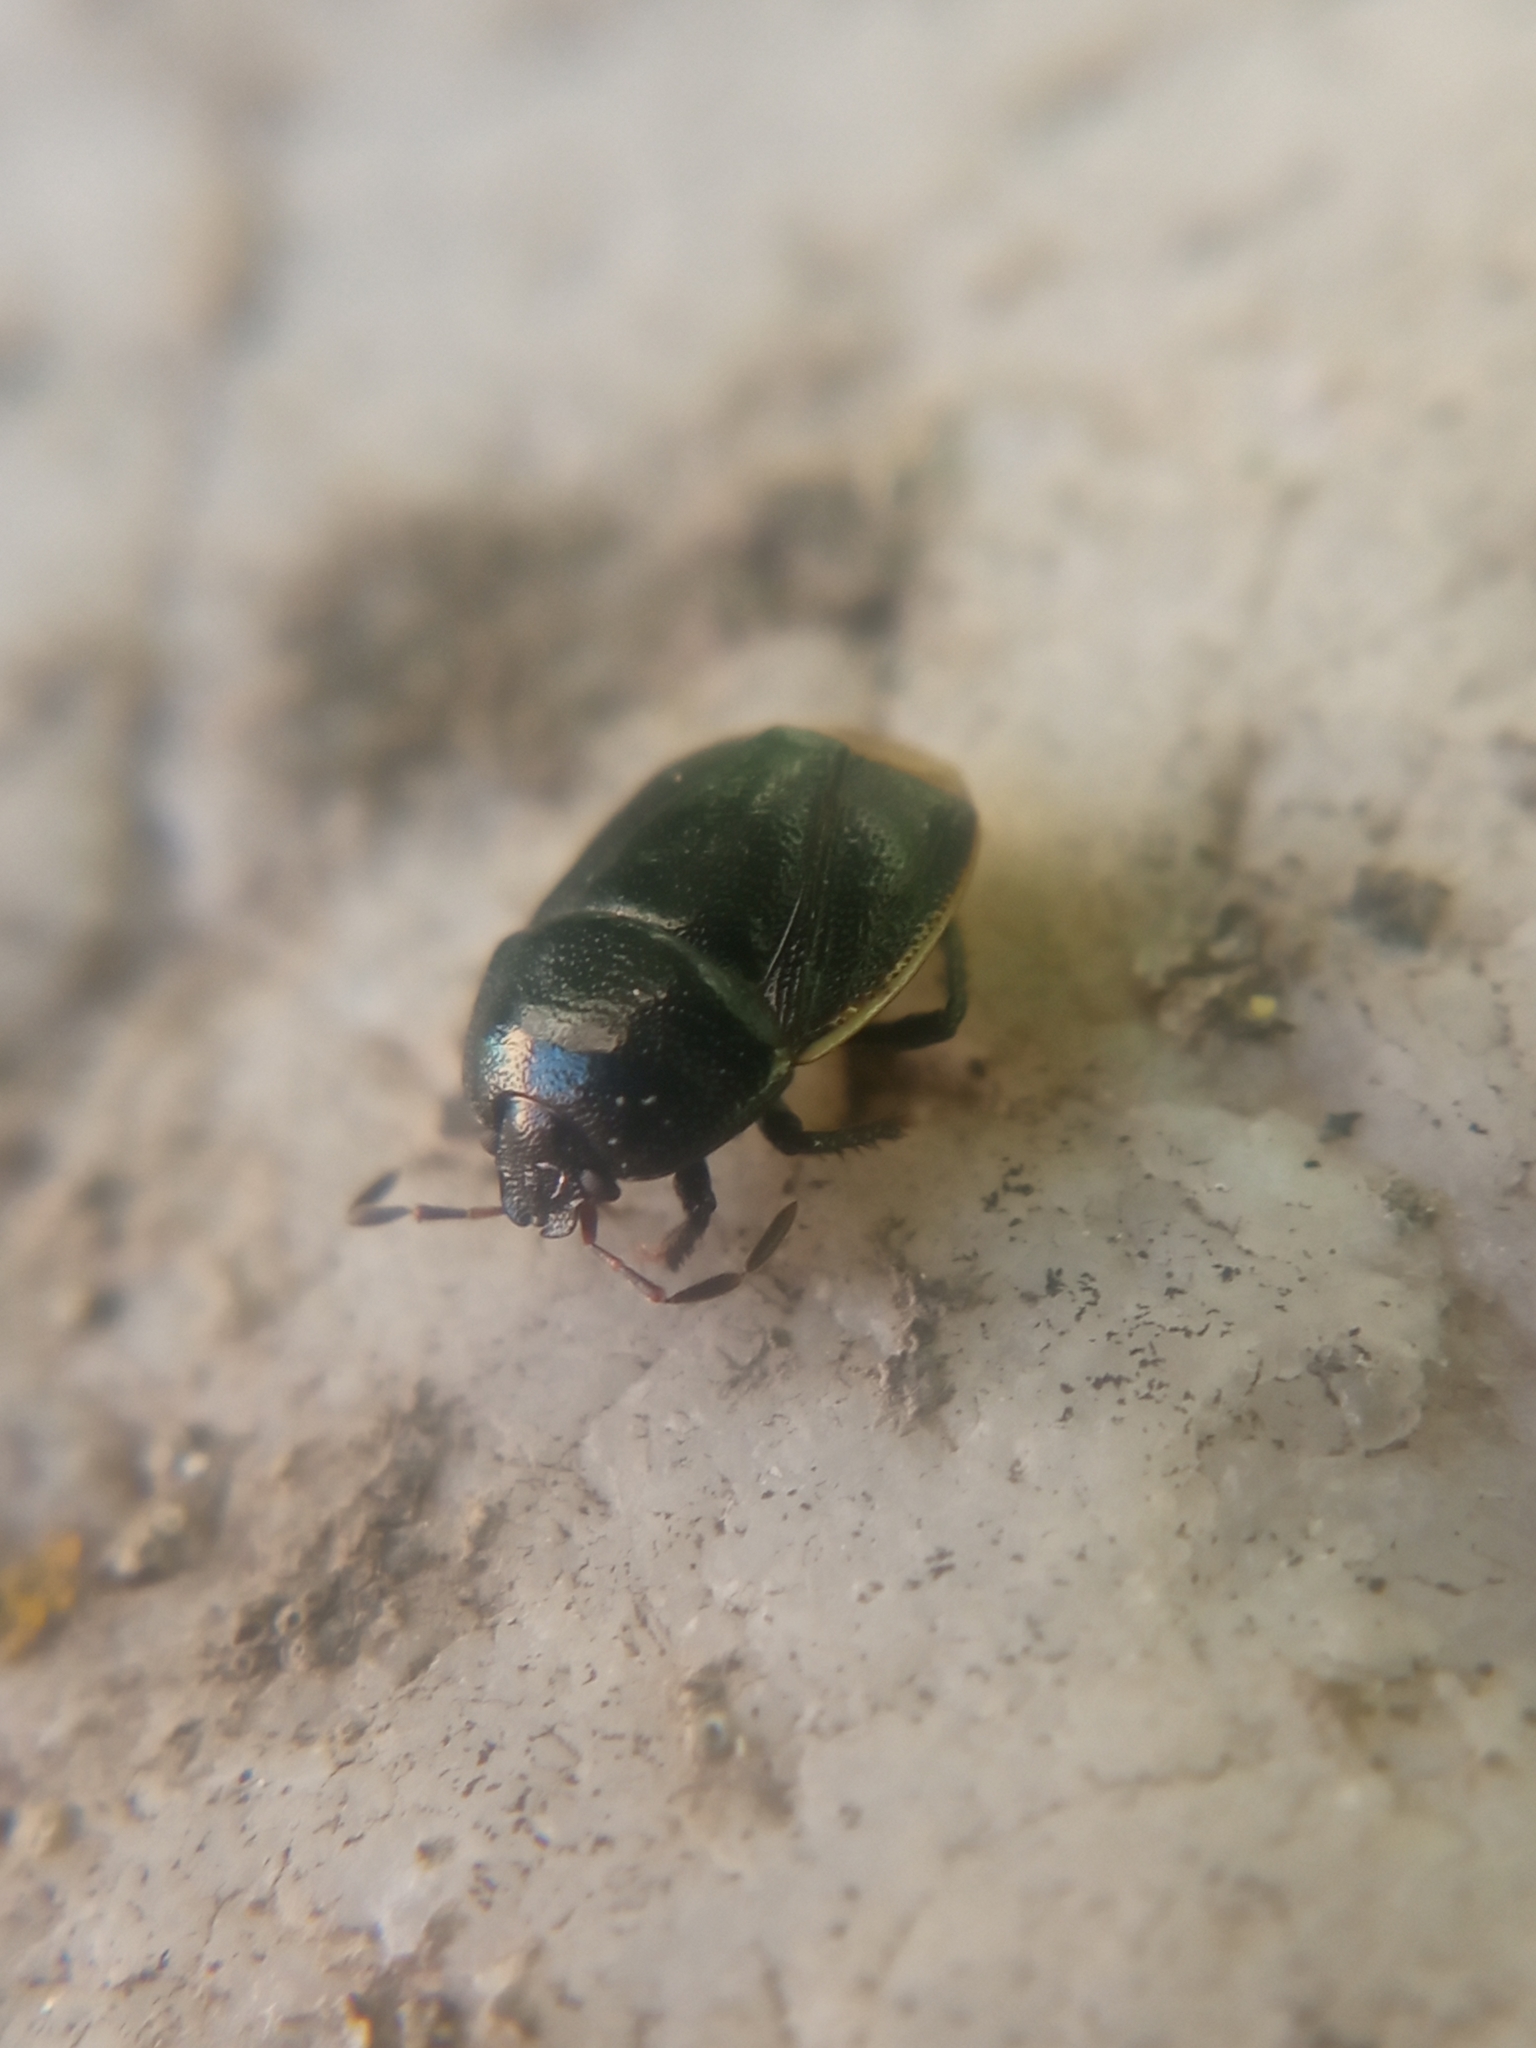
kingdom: Animalia
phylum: Arthropoda
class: Insecta
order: Hemiptera
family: Cydnidae
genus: Legnotus
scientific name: Legnotus limbosus
